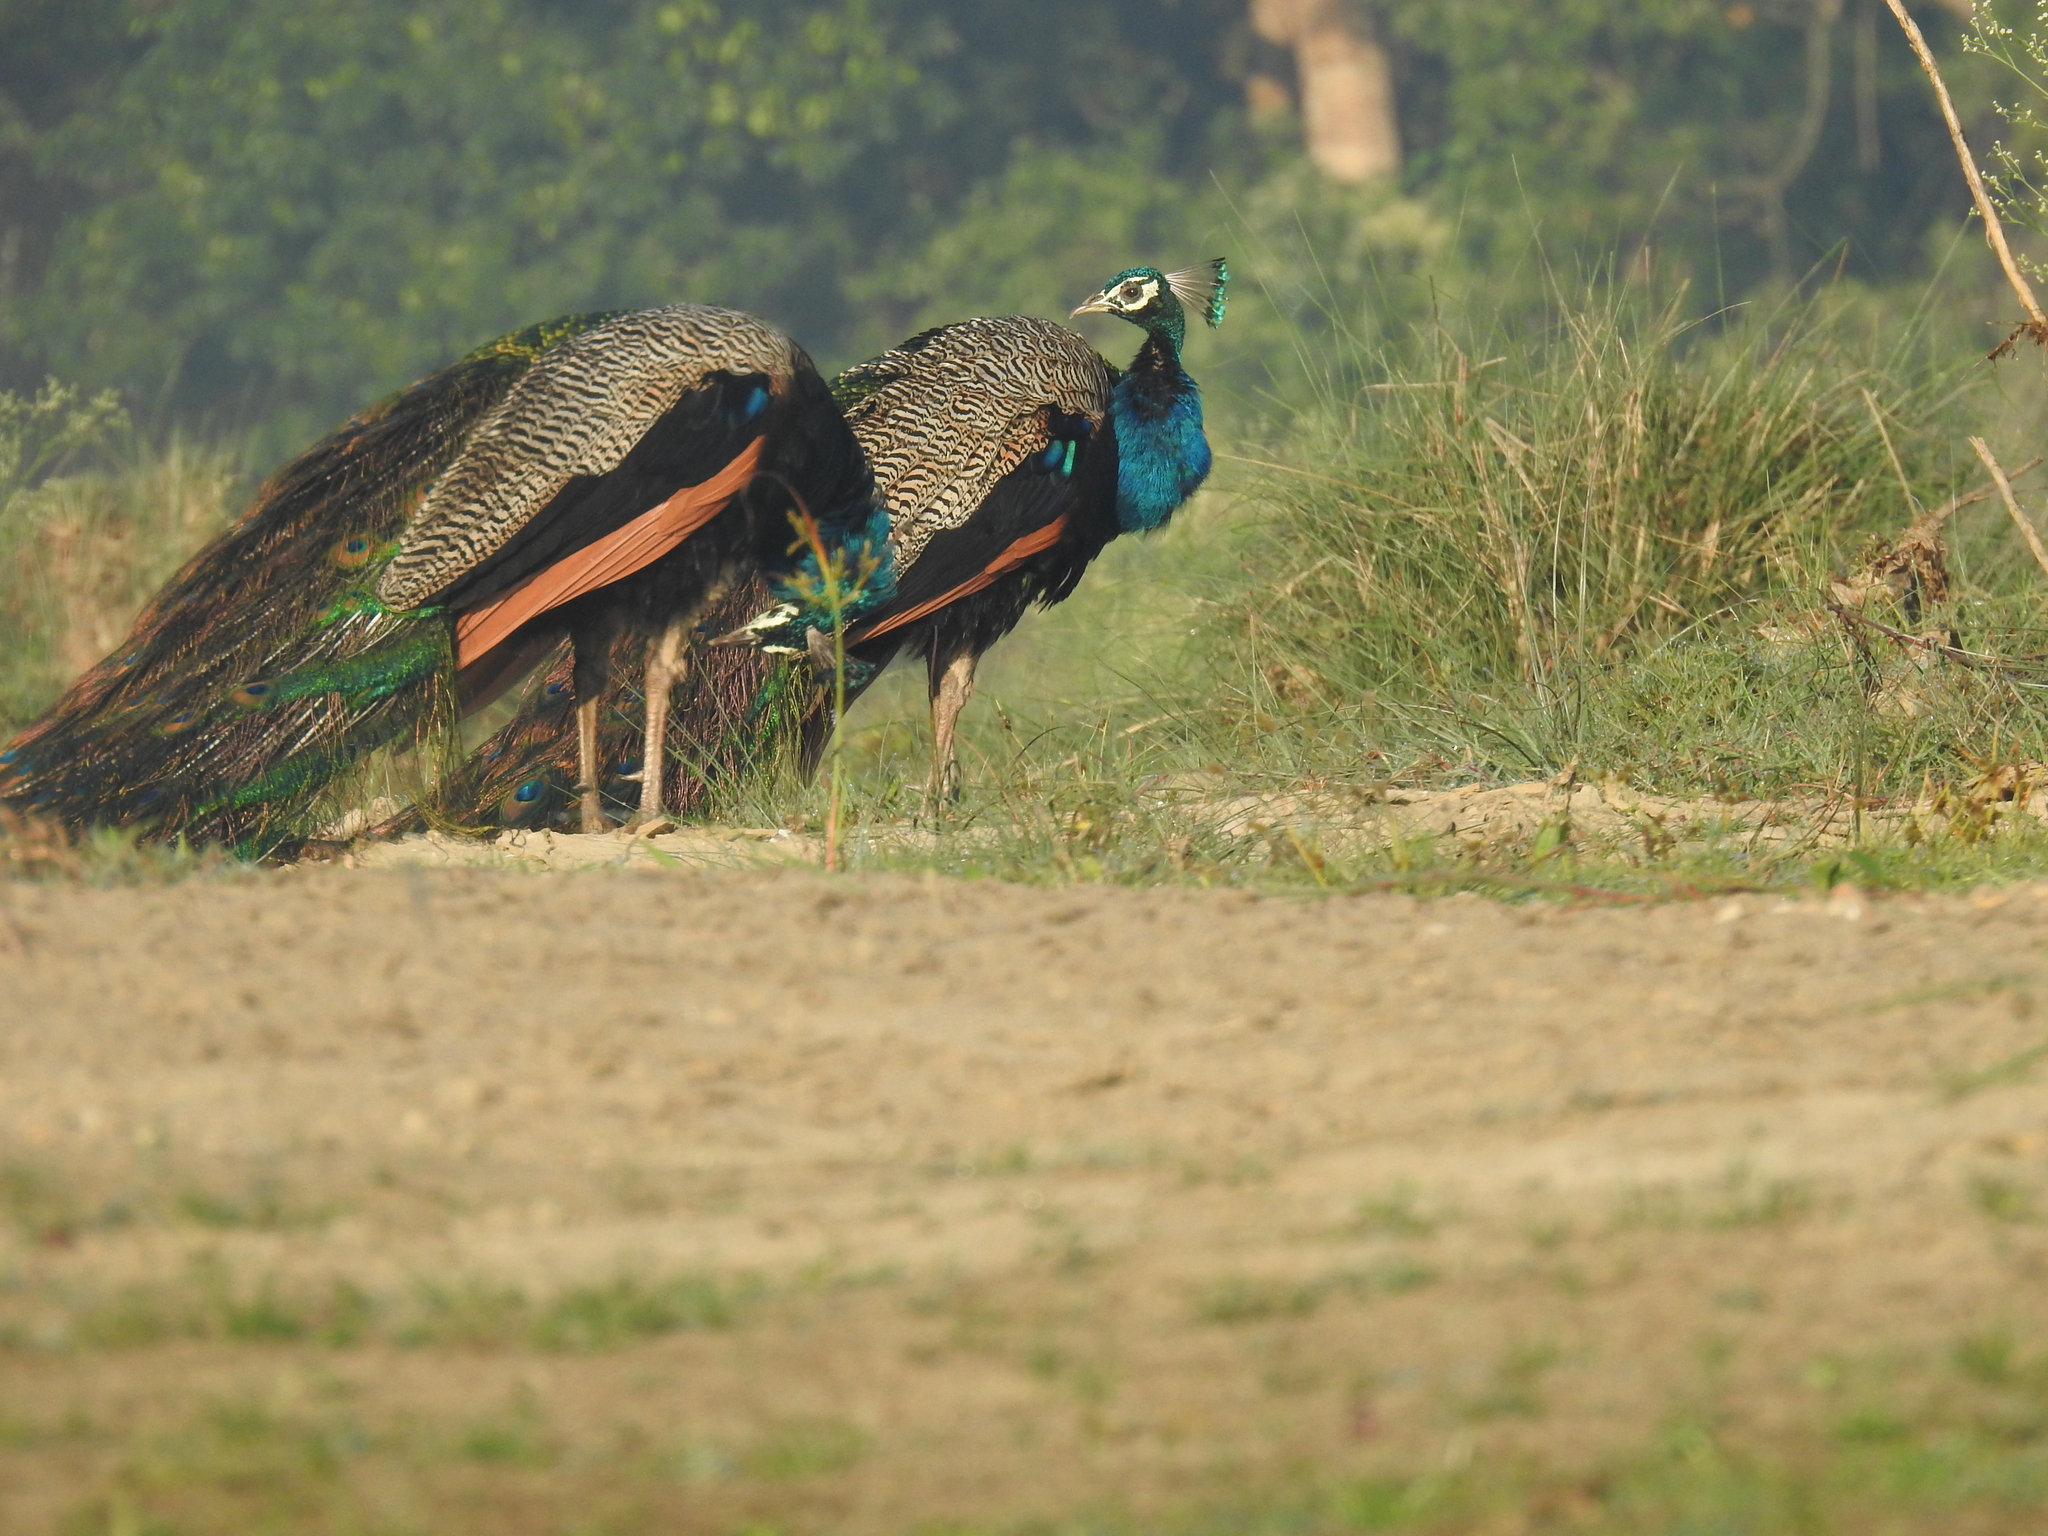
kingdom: Animalia
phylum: Chordata
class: Aves
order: Galliformes
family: Phasianidae
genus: Pavo
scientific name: Pavo cristatus
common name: Indian peafowl
